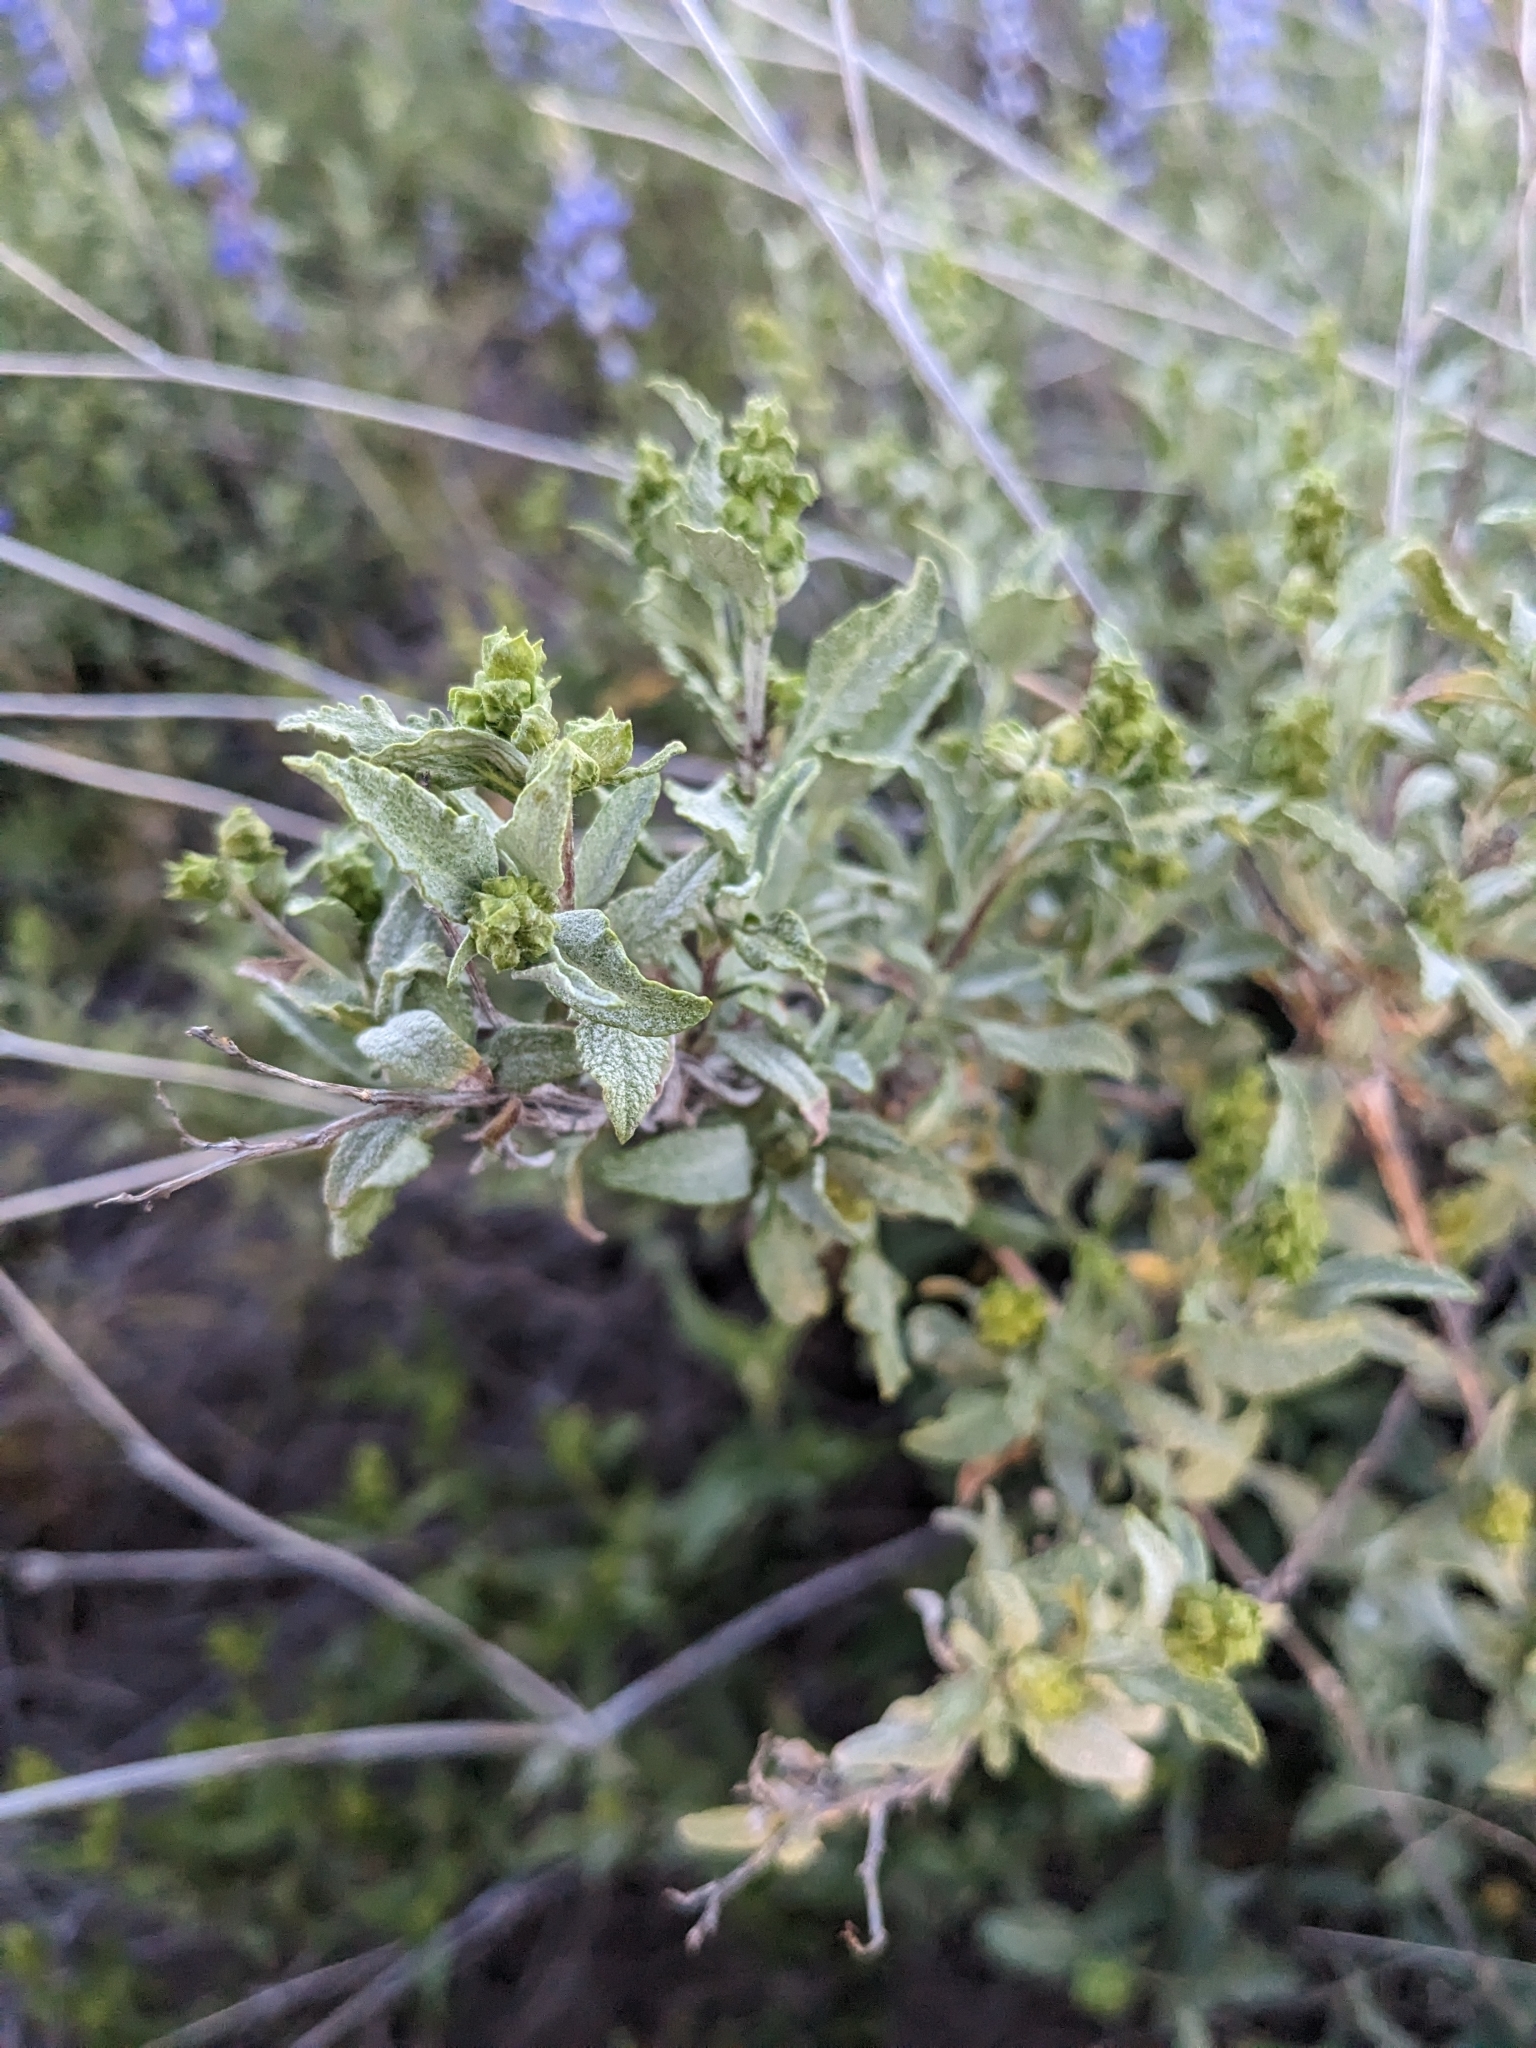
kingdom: Plantae
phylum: Tracheophyta
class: Magnoliopsida
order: Asterales
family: Asteraceae
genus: Ambrosia
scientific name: Ambrosia deltoidea
